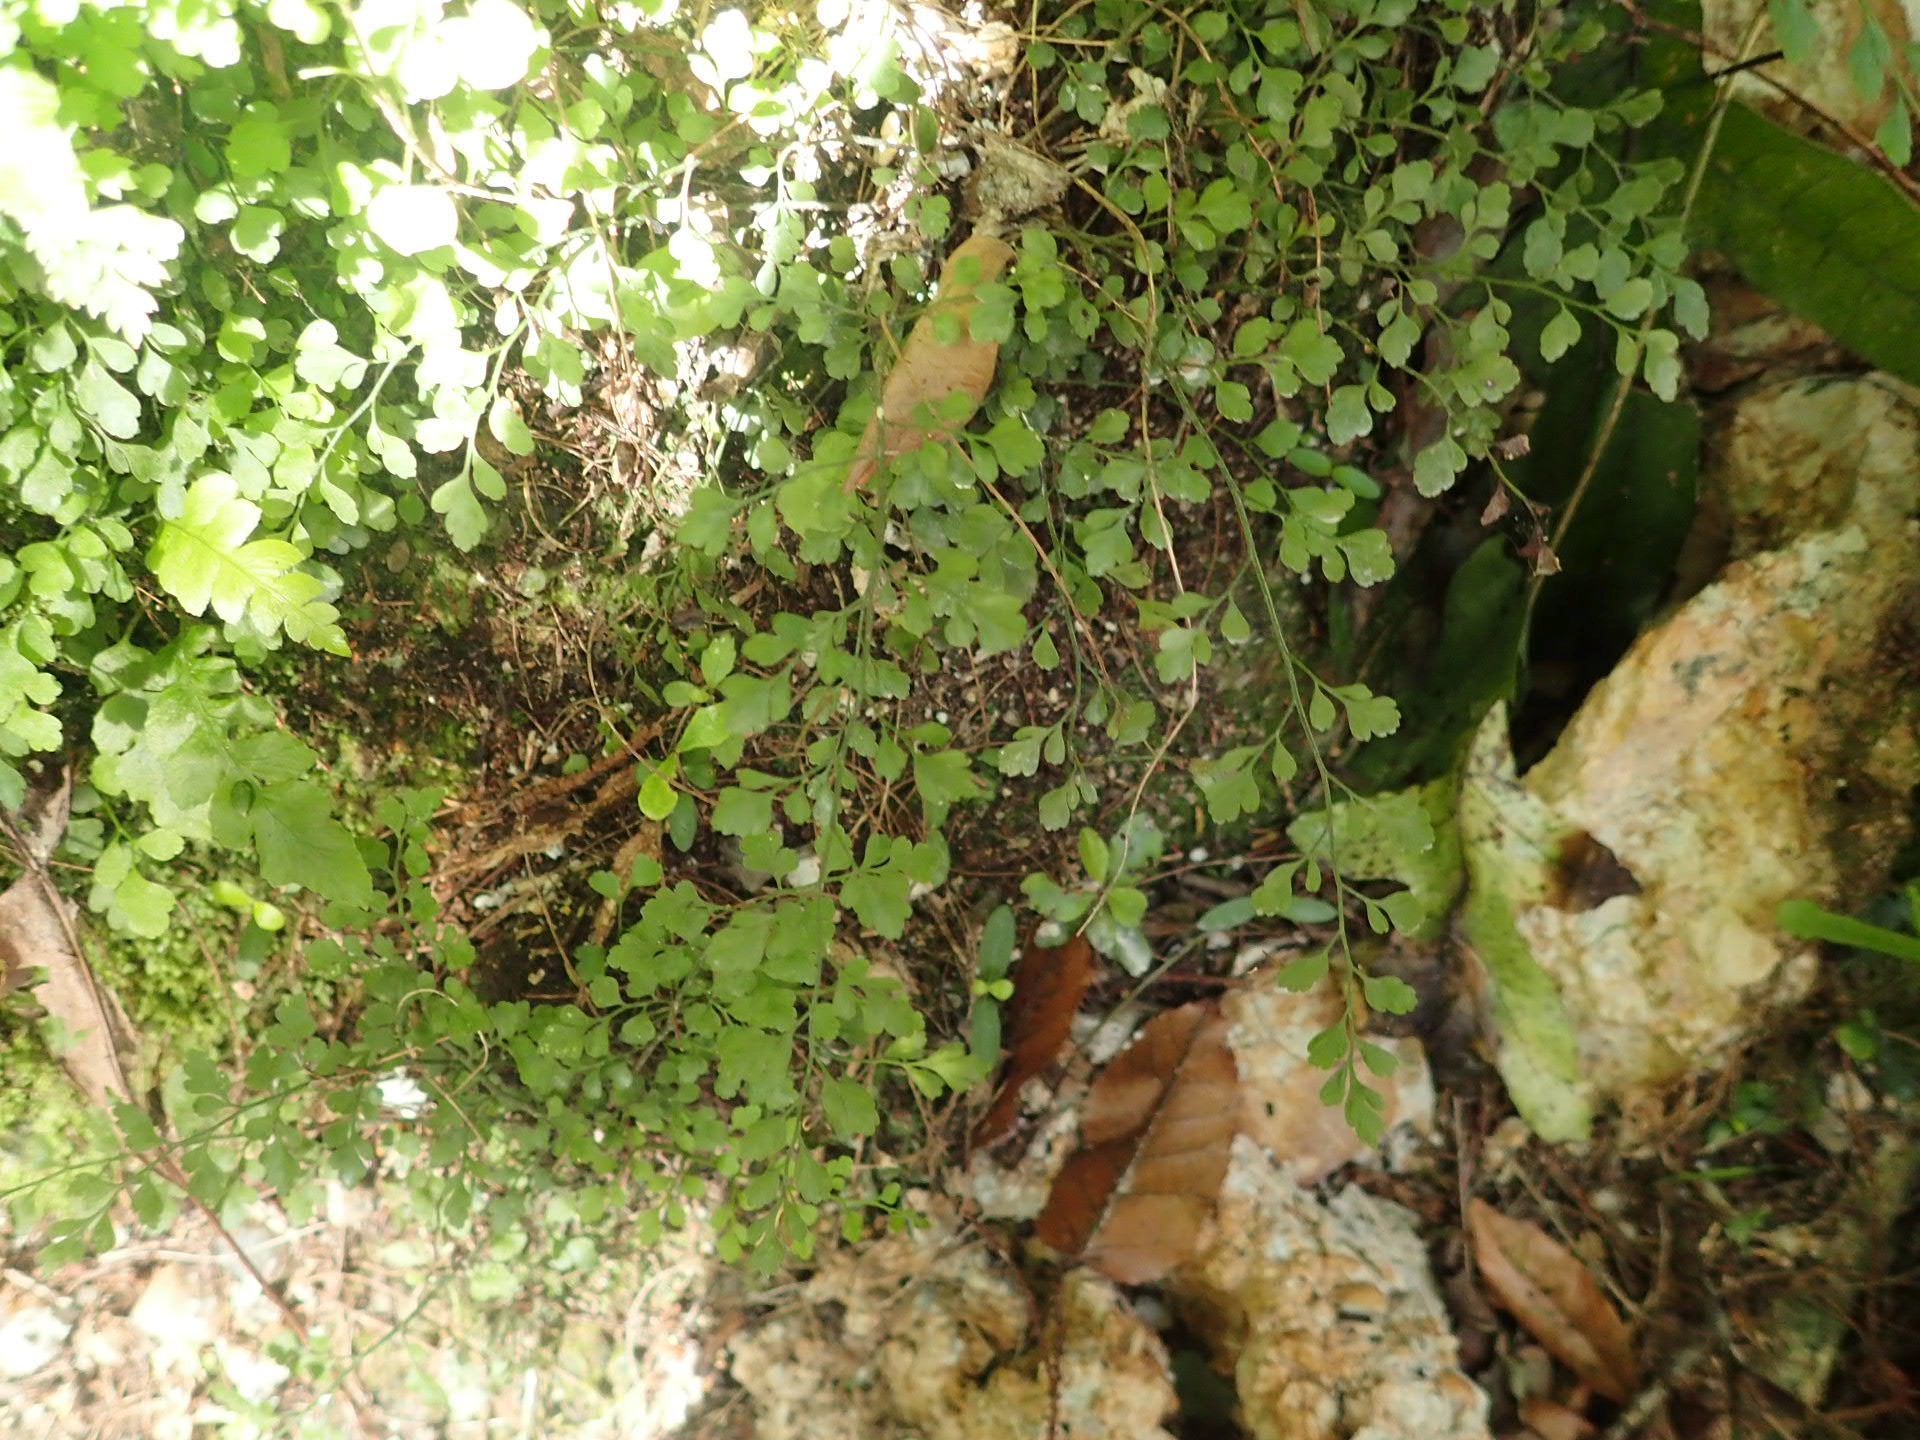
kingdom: Plantae
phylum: Tracheophyta
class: Polypodiopsida
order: Polypodiales
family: Aspleniaceae
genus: Asplenium
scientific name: Asplenium hookerianum
